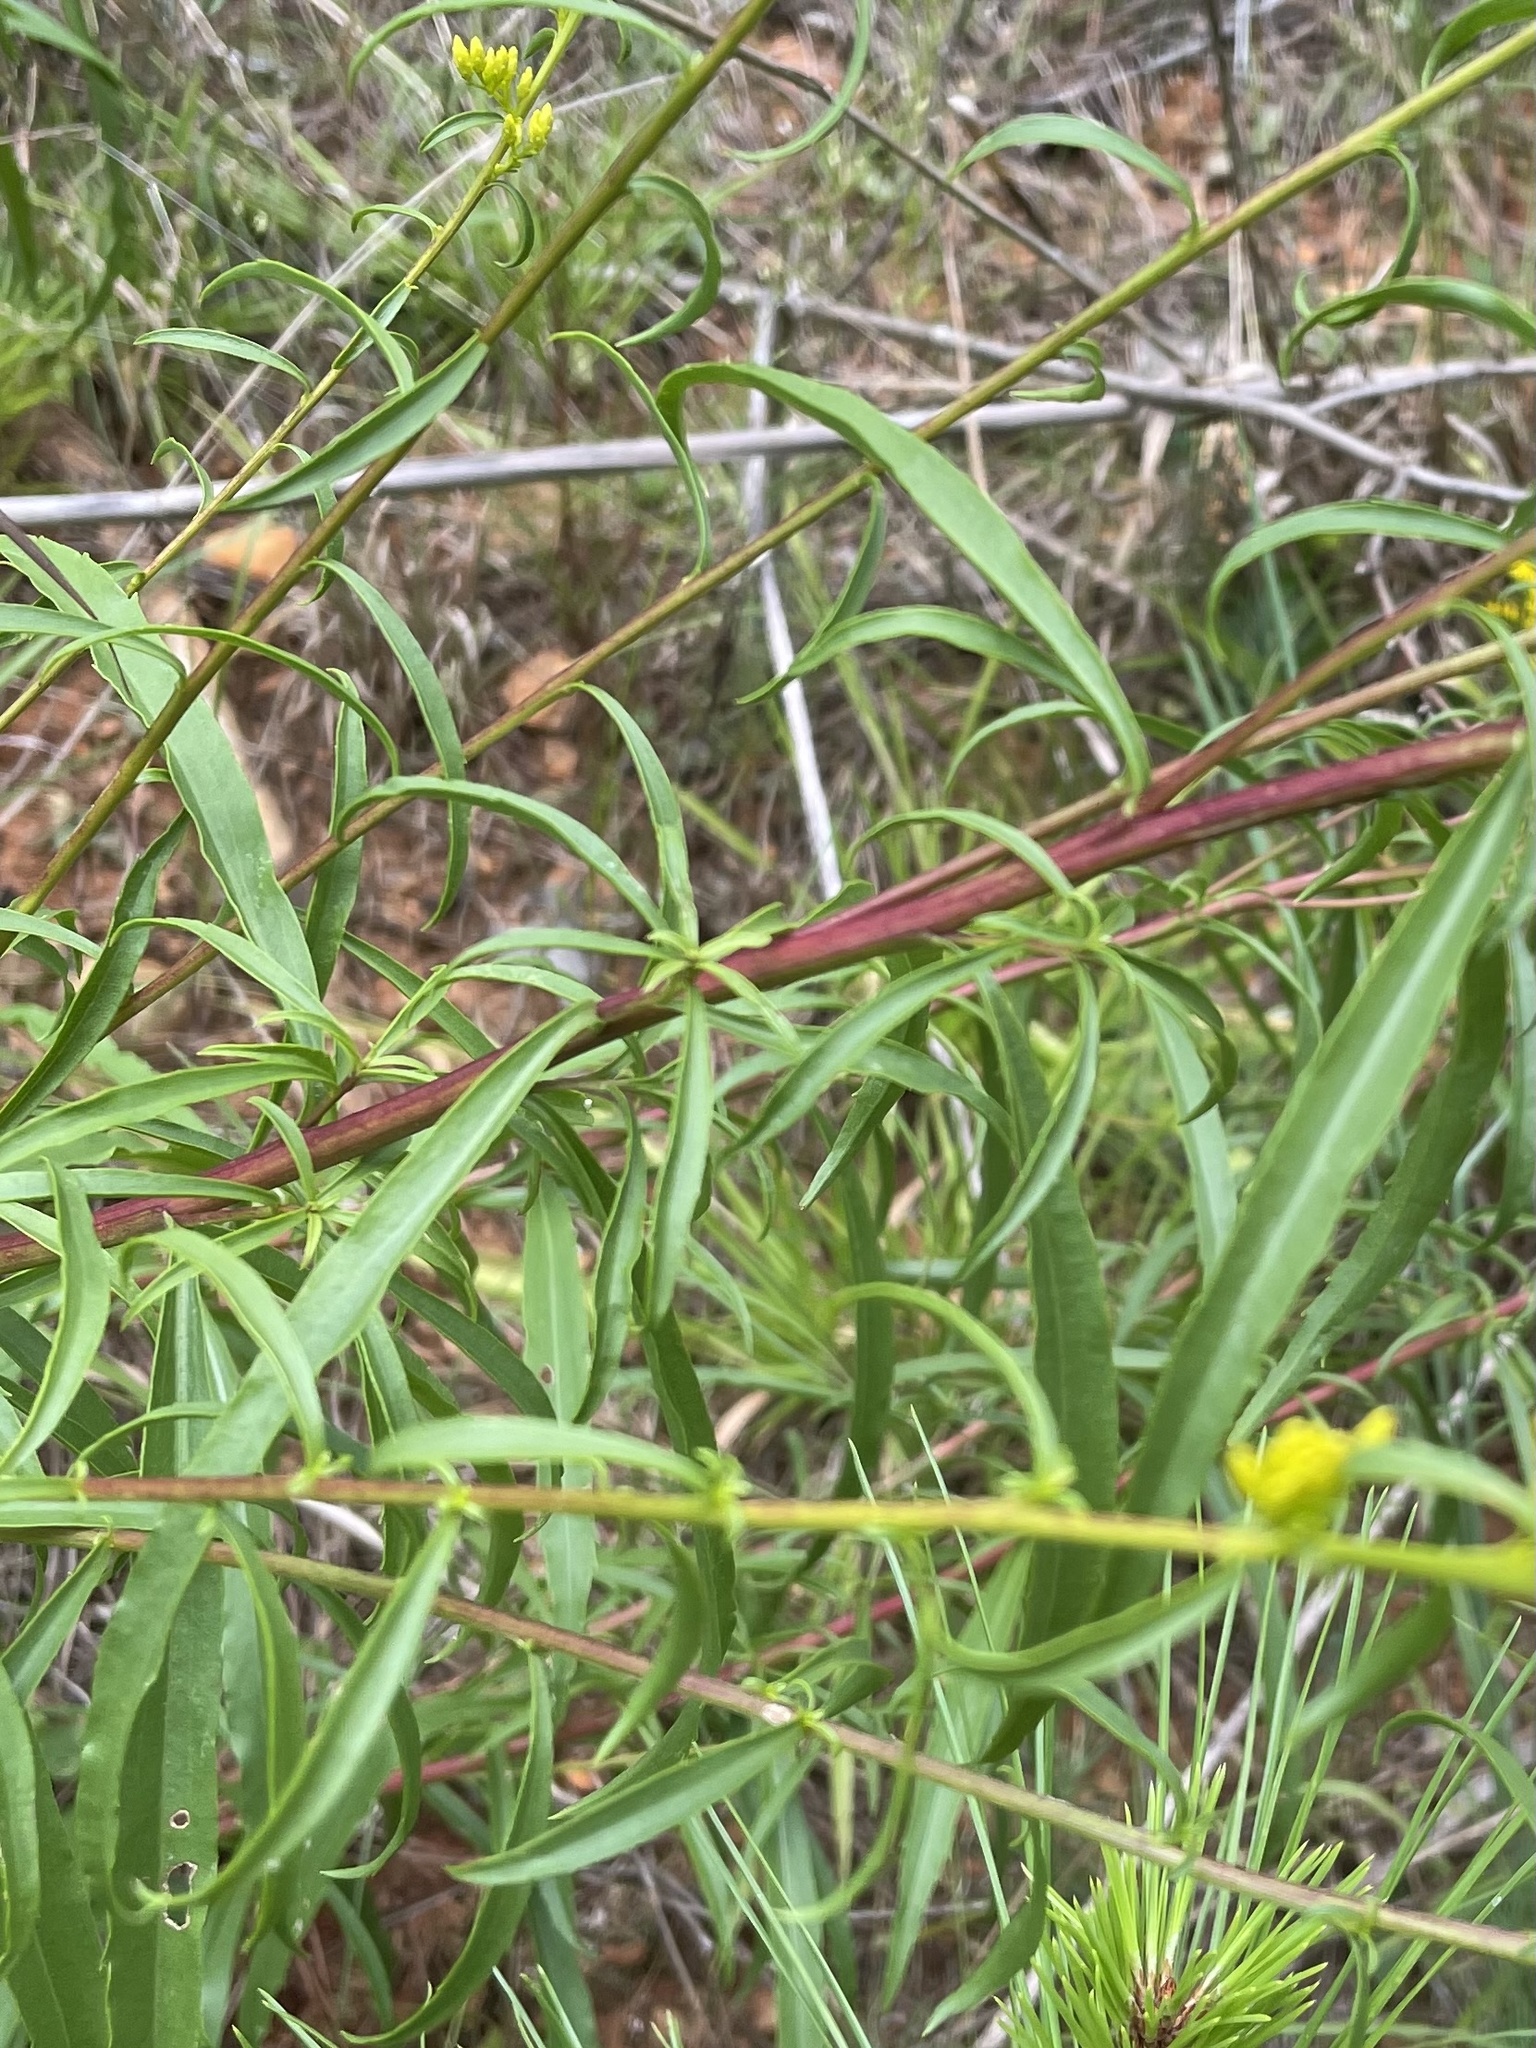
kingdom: Plantae
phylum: Tracheophyta
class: Magnoliopsida
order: Asterales
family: Asteraceae
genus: Solidago
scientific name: Solidago pinetorum
